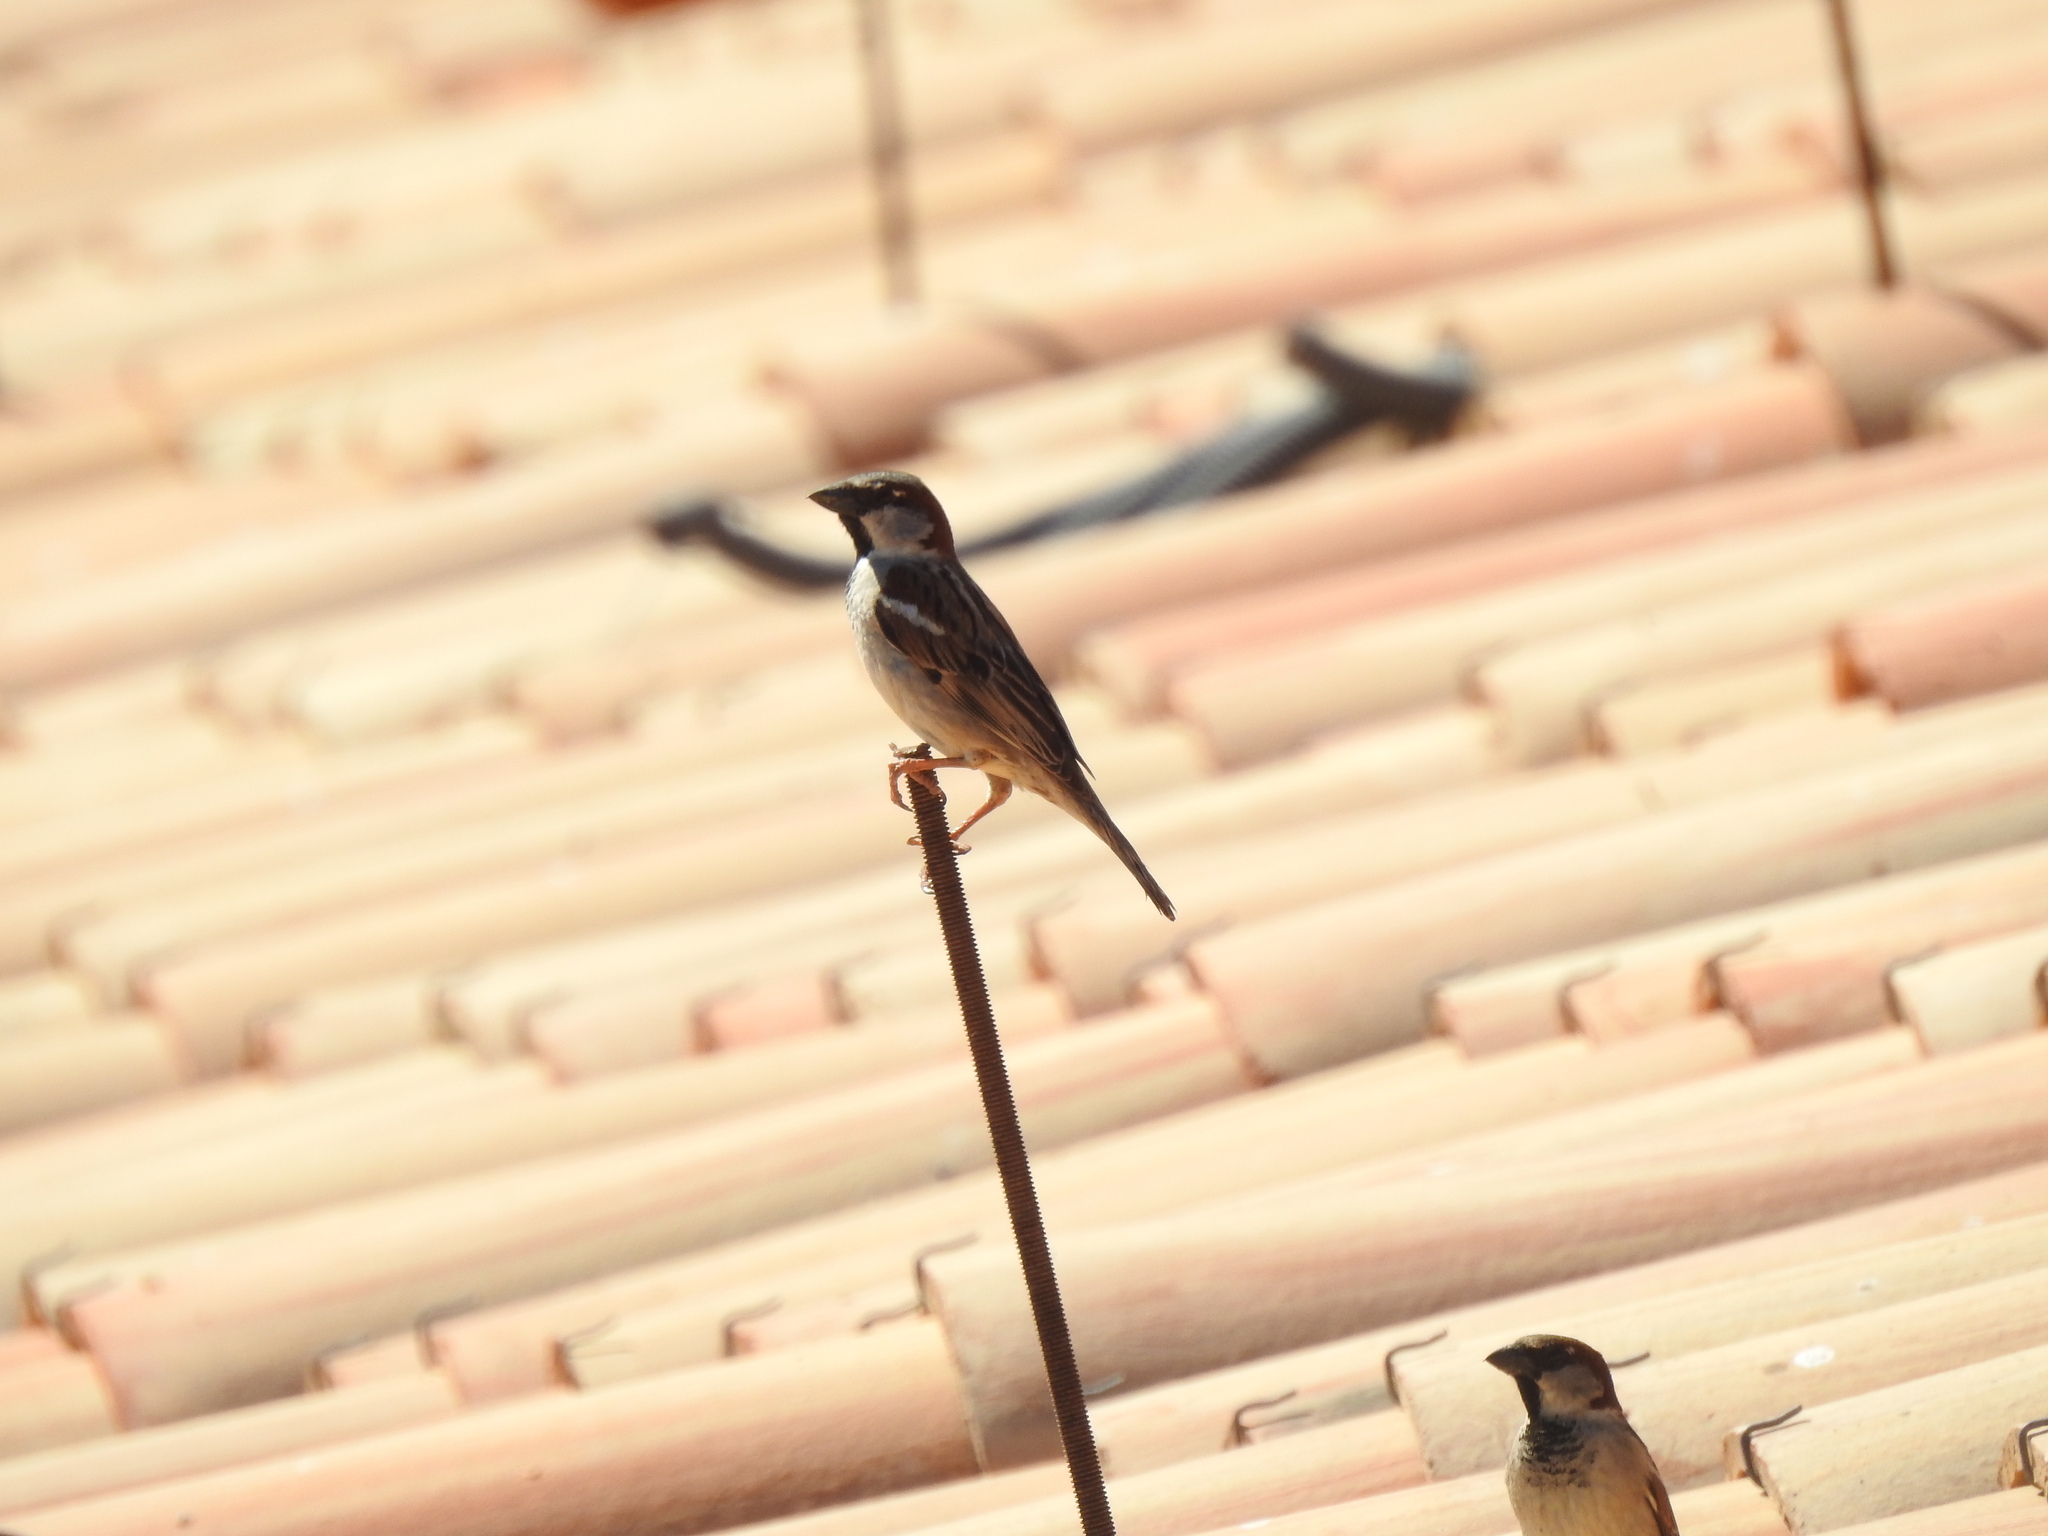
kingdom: Animalia
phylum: Chordata
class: Aves
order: Passeriformes
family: Passeridae
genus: Passer
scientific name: Passer domesticus
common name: House sparrow
